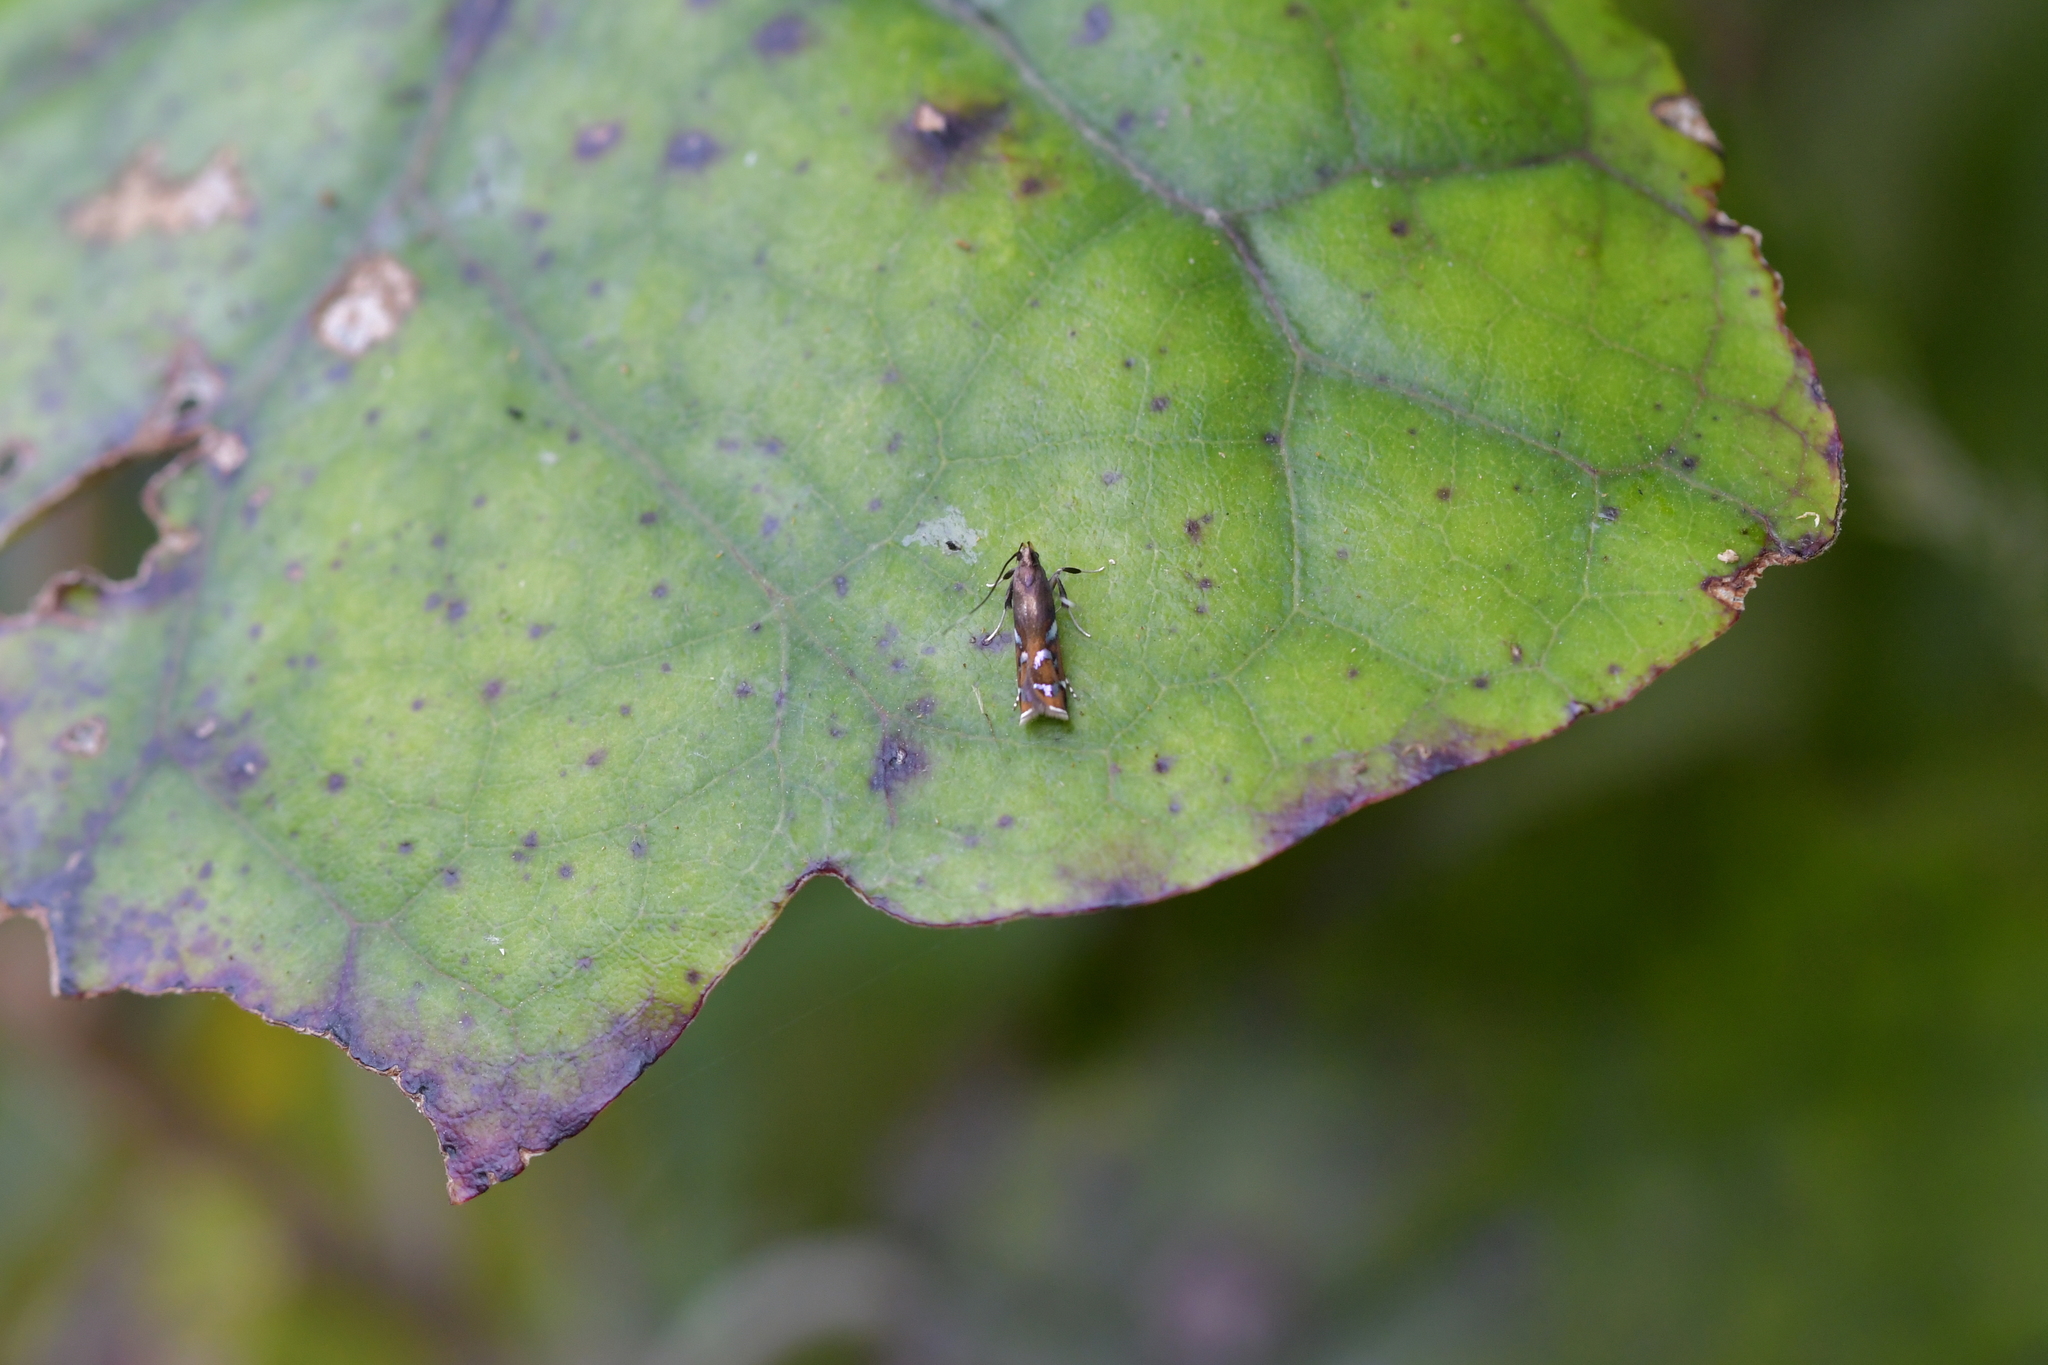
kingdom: Animalia
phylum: Arthropoda
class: Insecta
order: Lepidoptera
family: Depressariidae
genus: Compsistis
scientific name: Compsistis bifaciella
